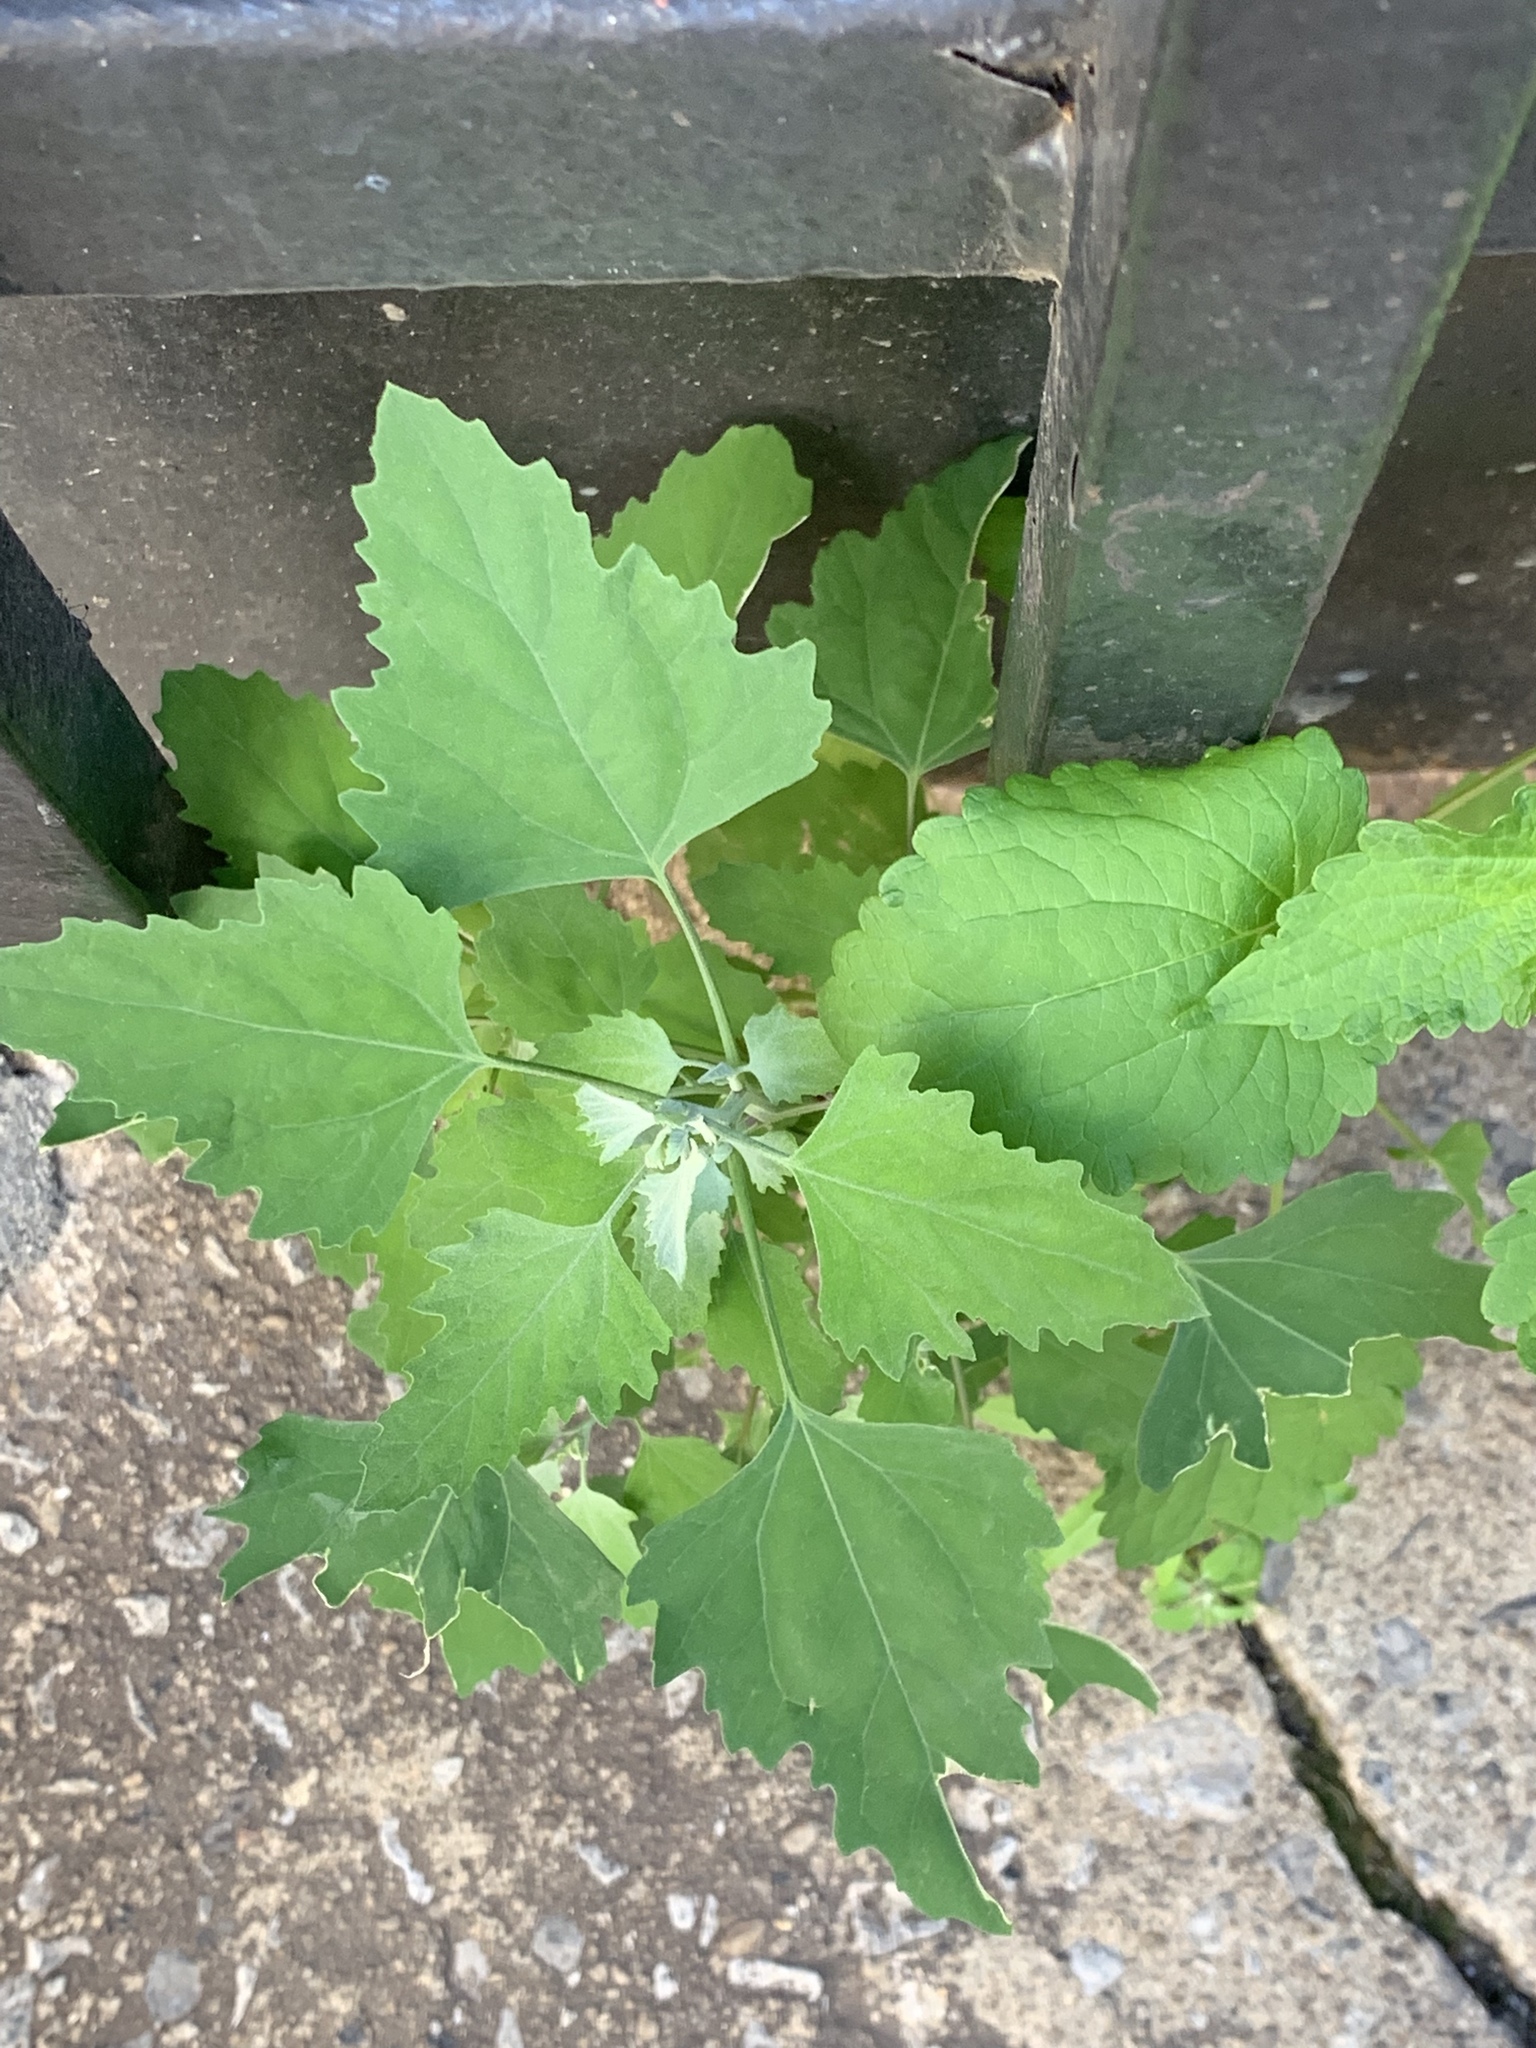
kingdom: Plantae
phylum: Tracheophyta
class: Magnoliopsida
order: Caryophyllales
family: Amaranthaceae
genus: Chenopodium
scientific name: Chenopodium album
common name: Fat-hen
